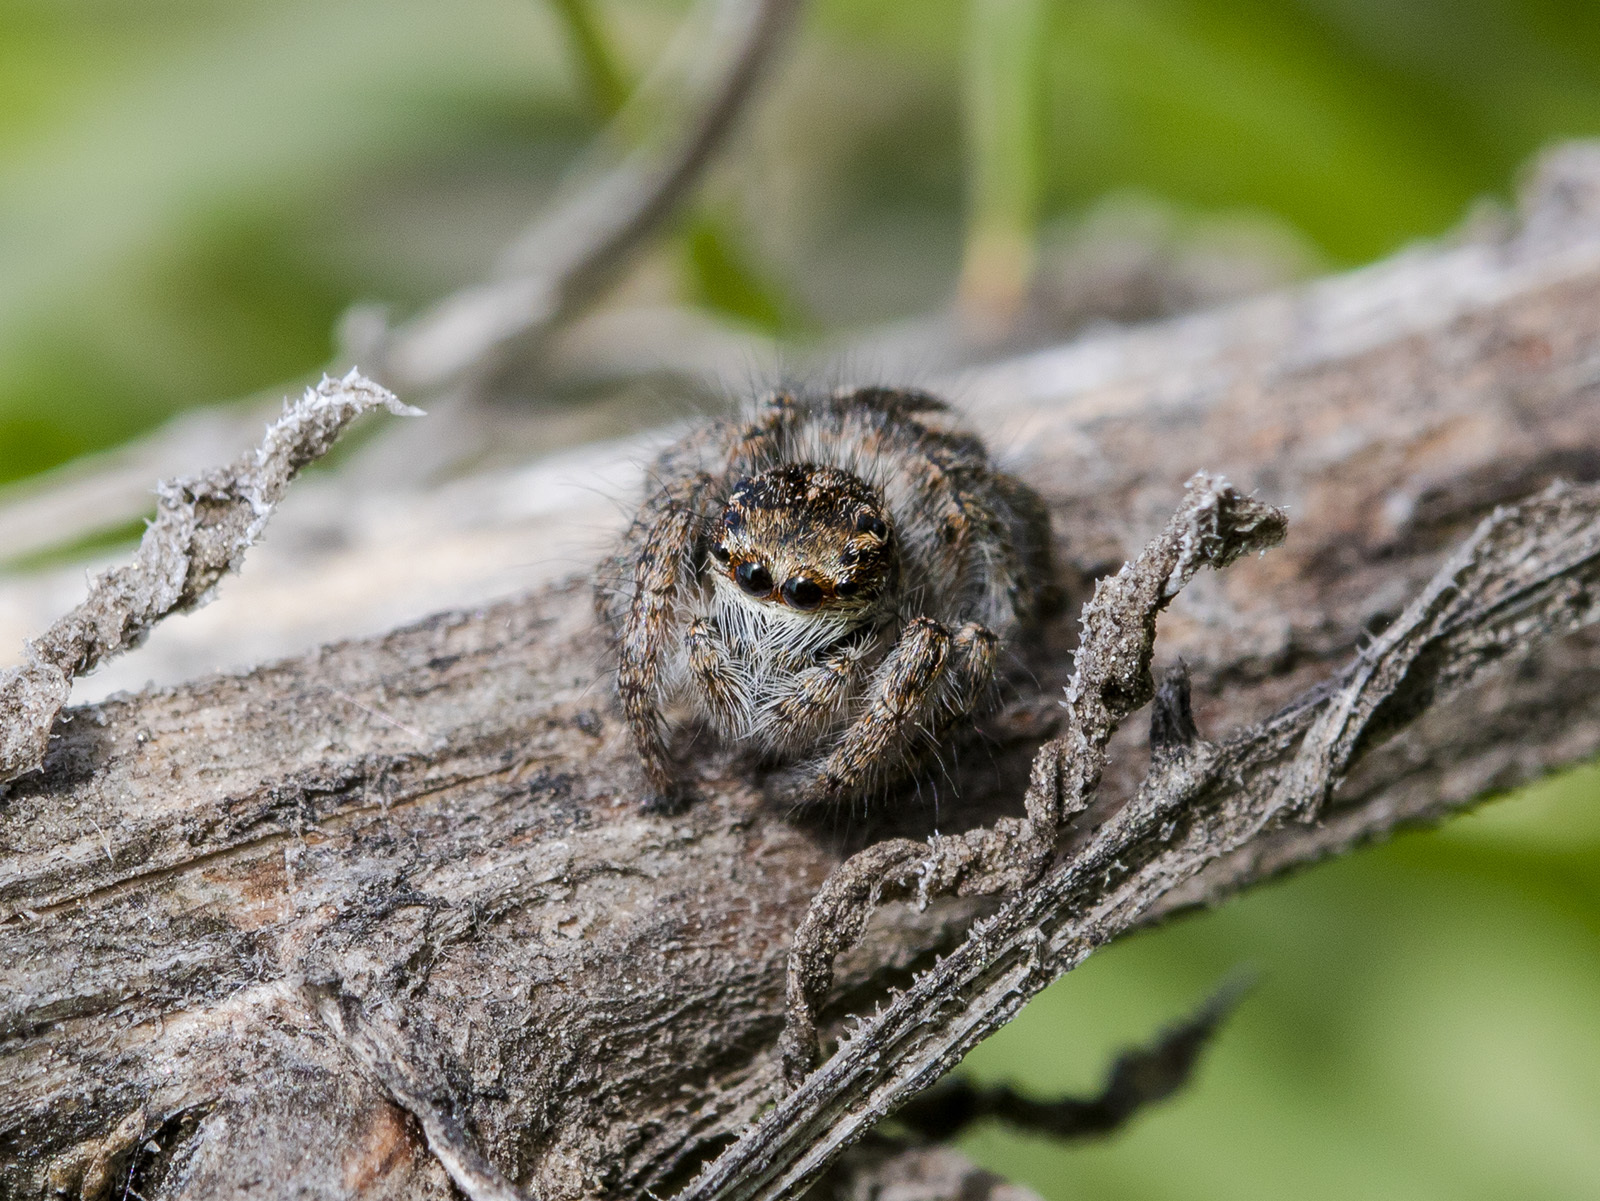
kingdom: Animalia
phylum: Arthropoda
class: Arachnida
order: Araneae
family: Salticidae
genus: Philaeus
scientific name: Philaeus chrysops
